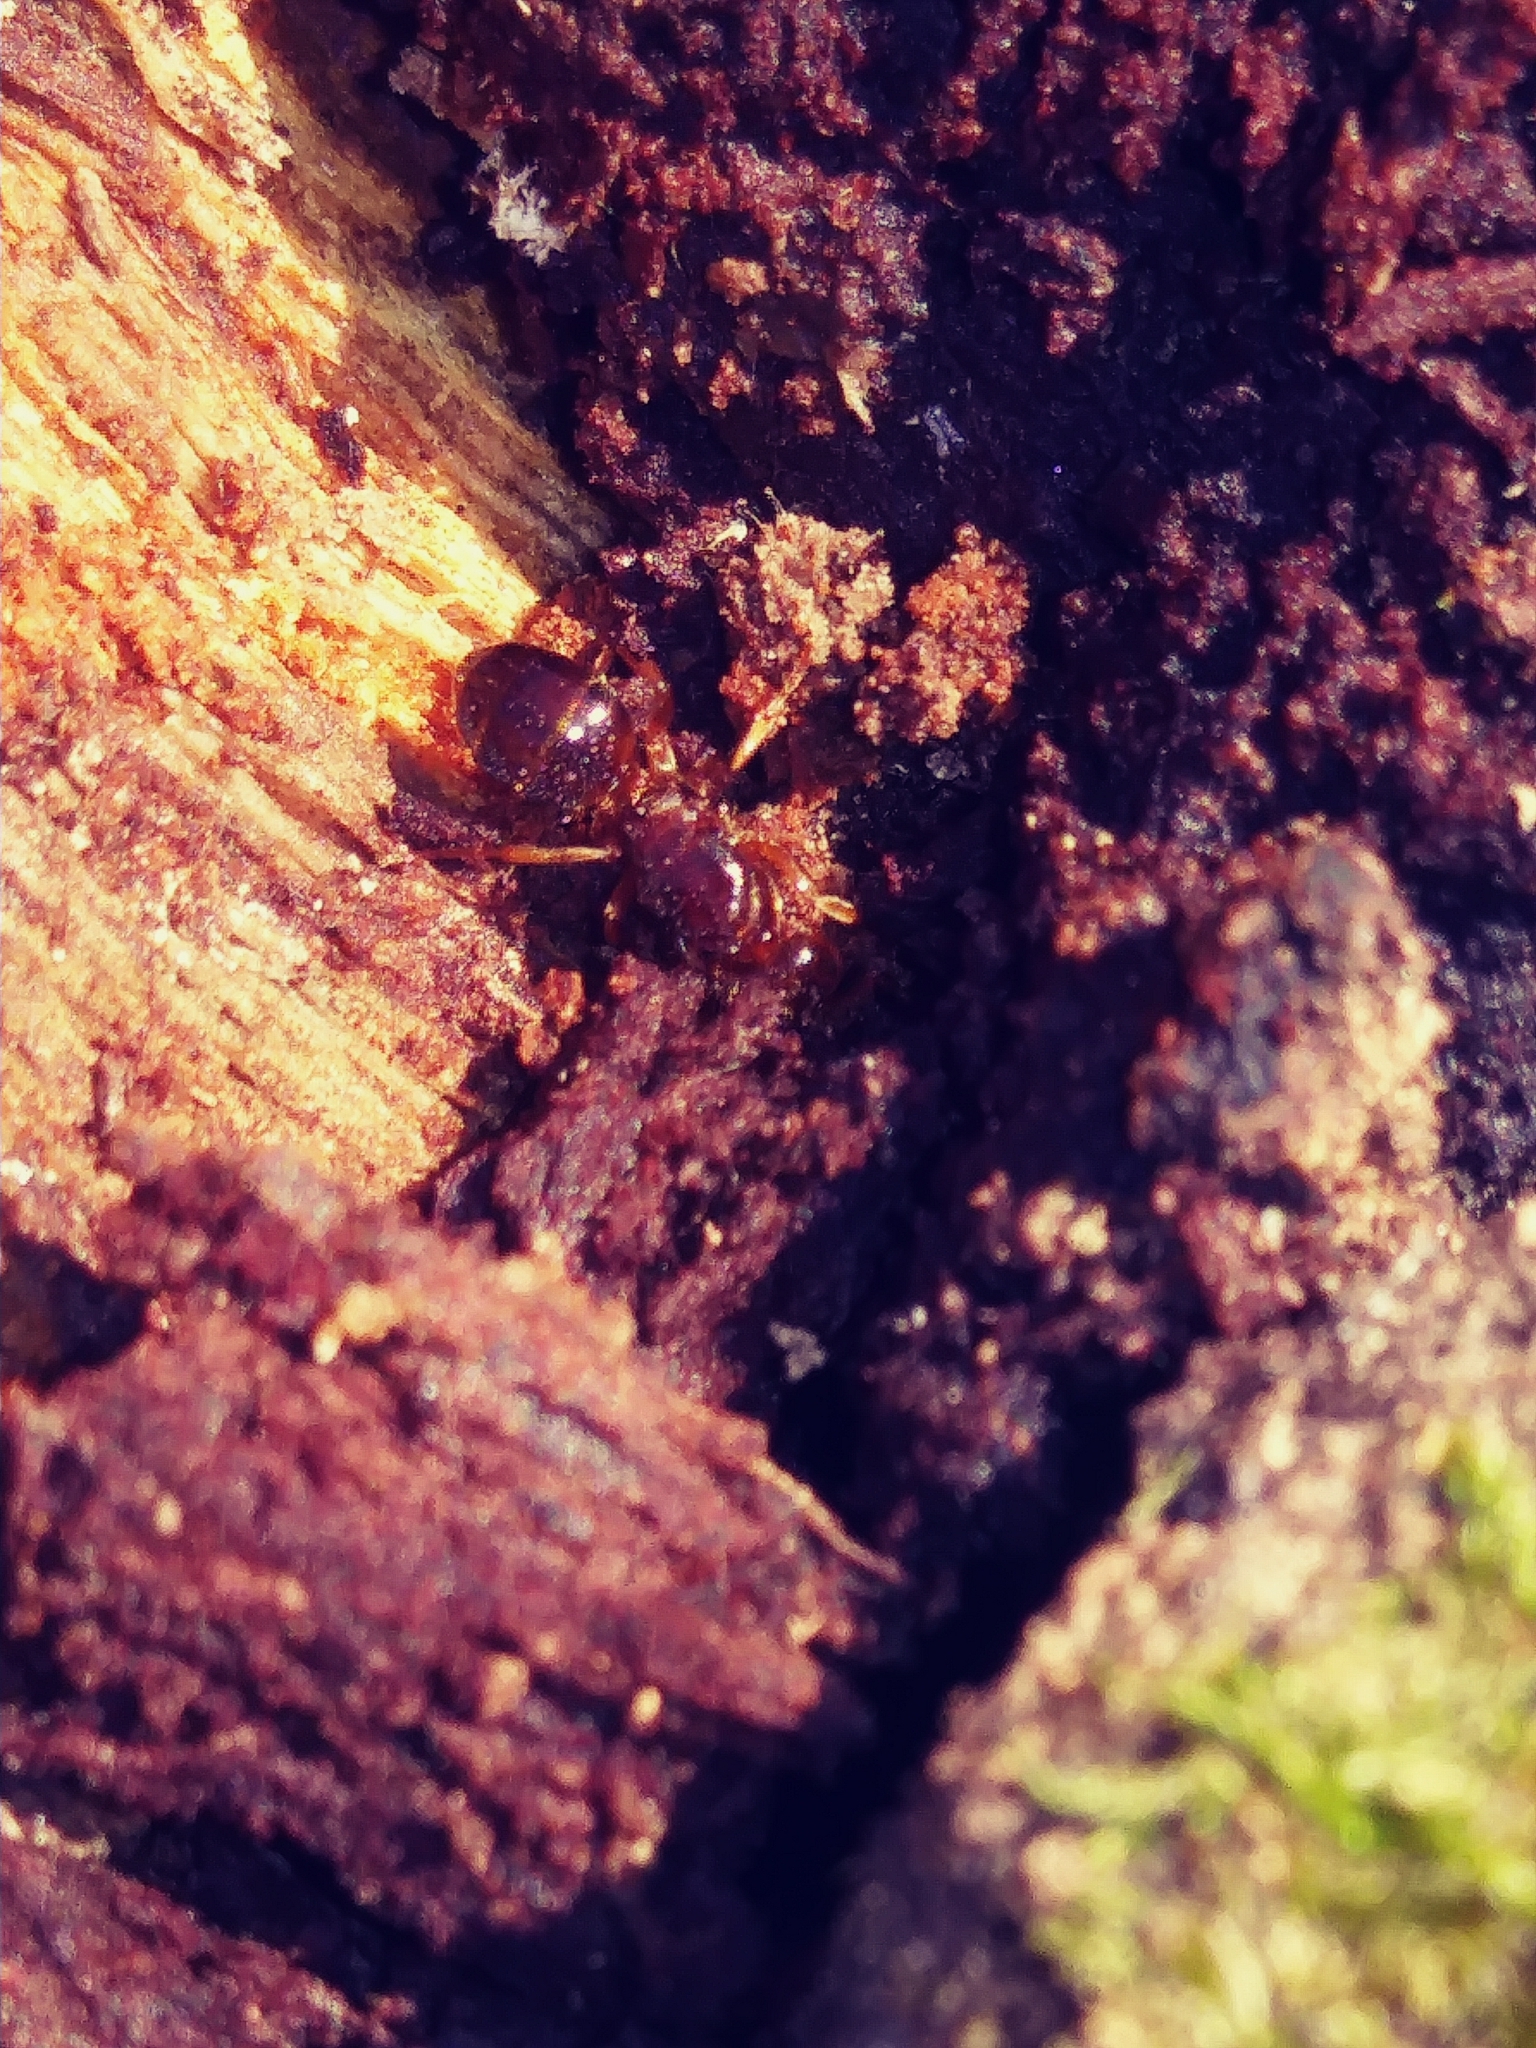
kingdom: Animalia
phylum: Arthropoda
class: Insecta
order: Hymenoptera
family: Formicidae
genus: Lasius
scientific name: Lasius claviger
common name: Common citronella ant
